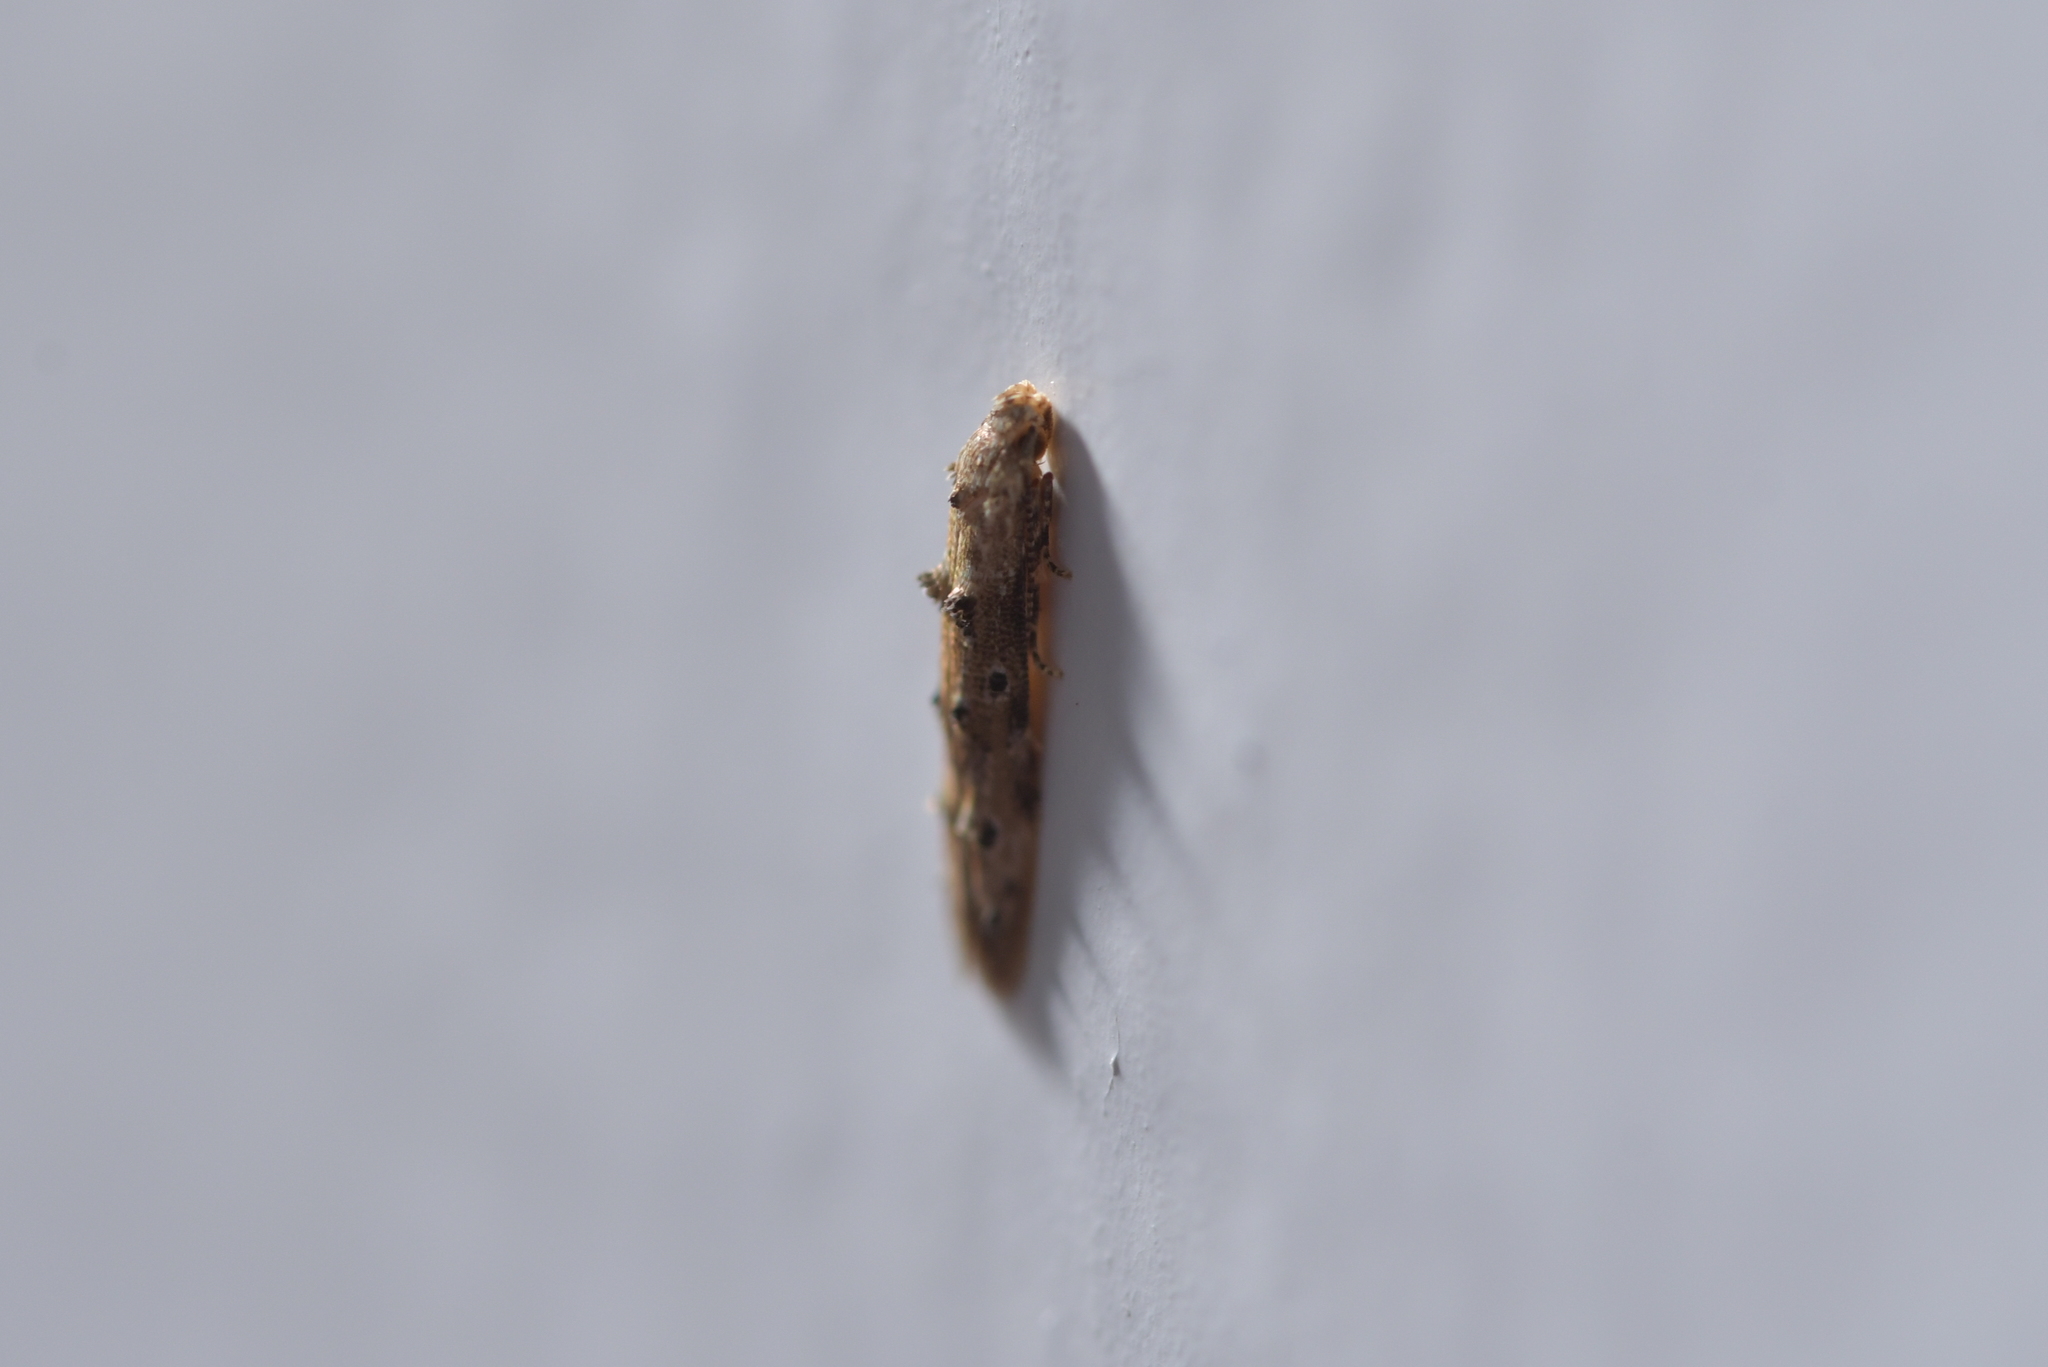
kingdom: Animalia
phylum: Arthropoda
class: Insecta
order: Lepidoptera
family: Elachistidae
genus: Microcolona
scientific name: Microcolona limodes
